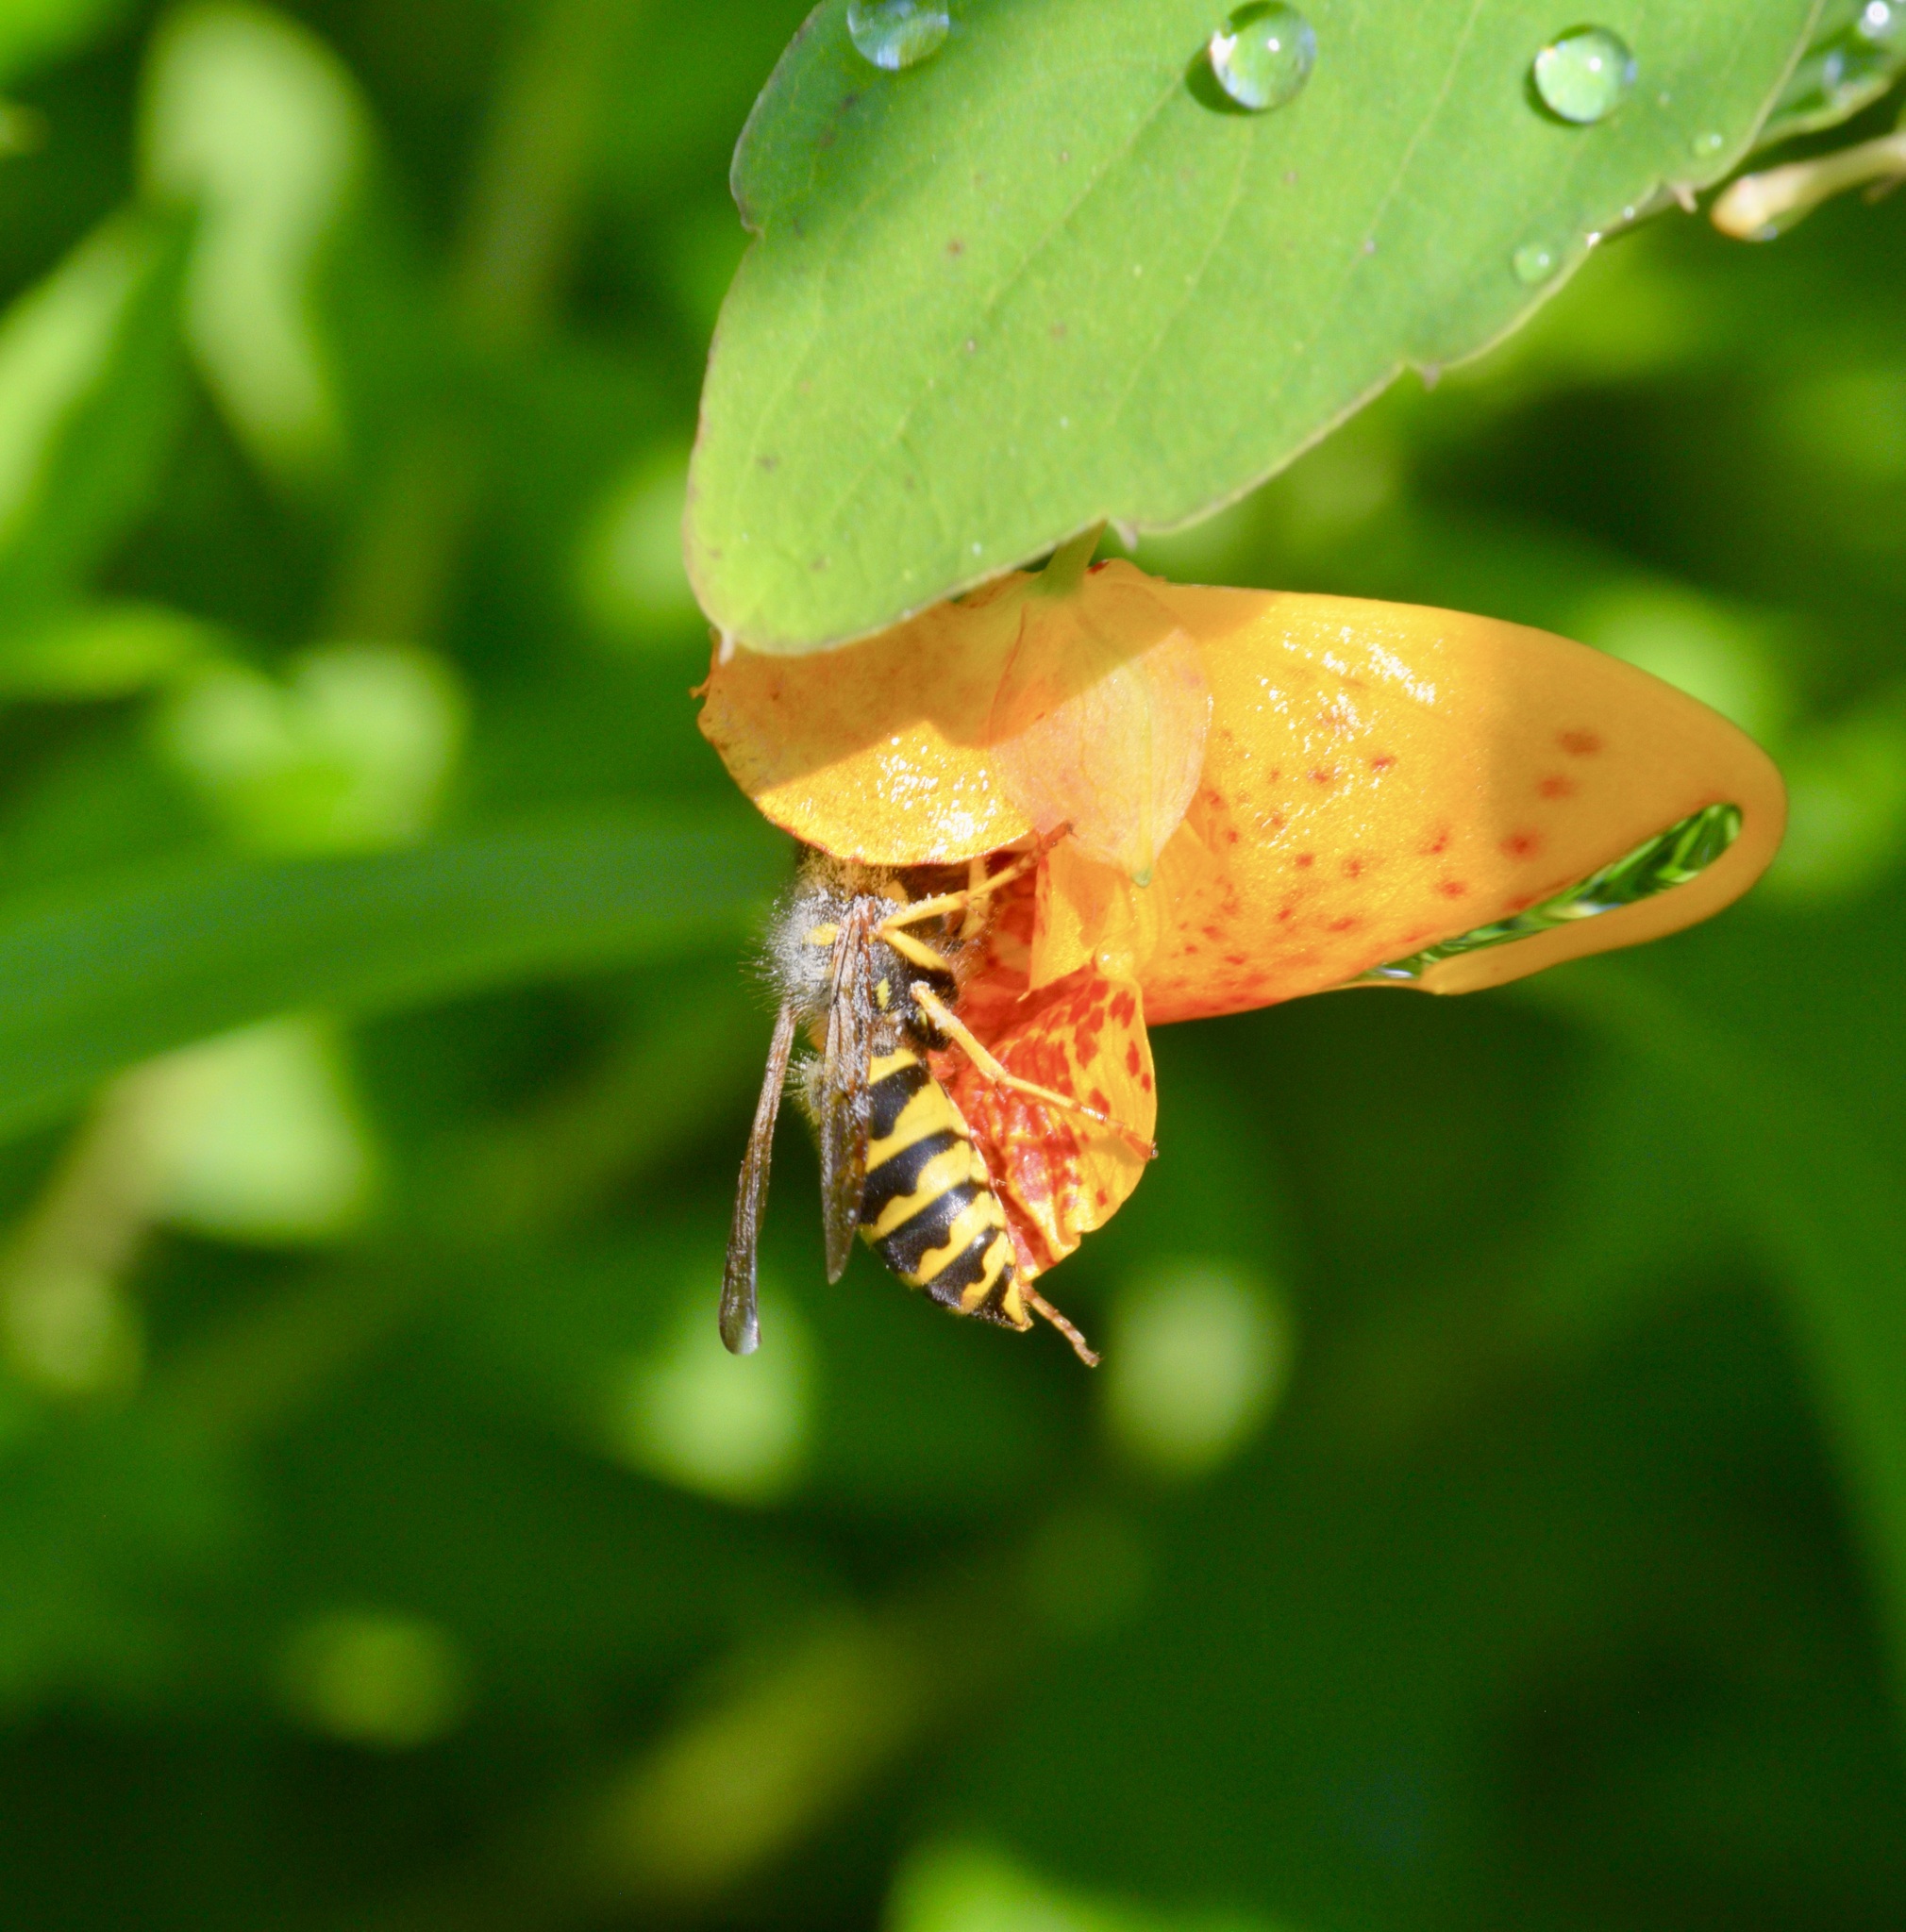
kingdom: Animalia
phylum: Arthropoda
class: Insecta
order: Hymenoptera
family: Vespidae
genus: Vespula
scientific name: Vespula
